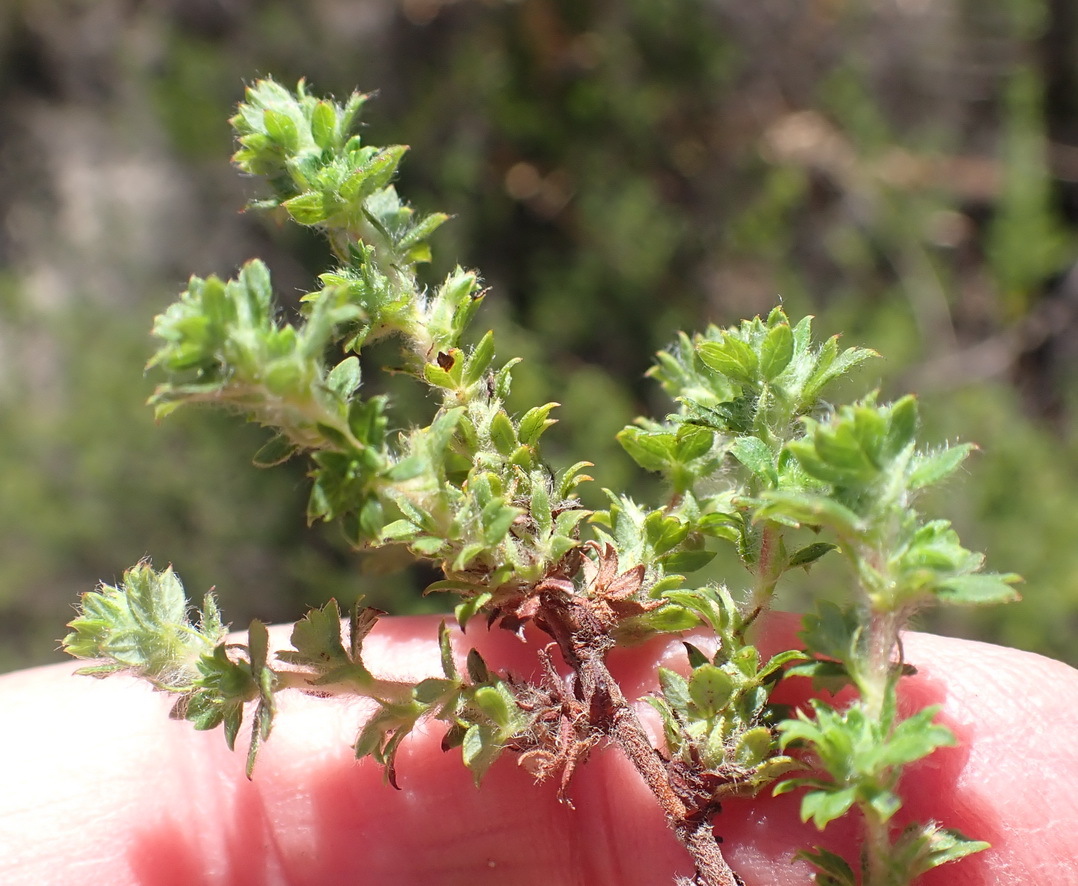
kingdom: Plantae
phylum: Tracheophyta
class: Magnoliopsida
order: Rosales
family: Rosaceae
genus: Cliffortia
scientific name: Cliffortia filicaulis
